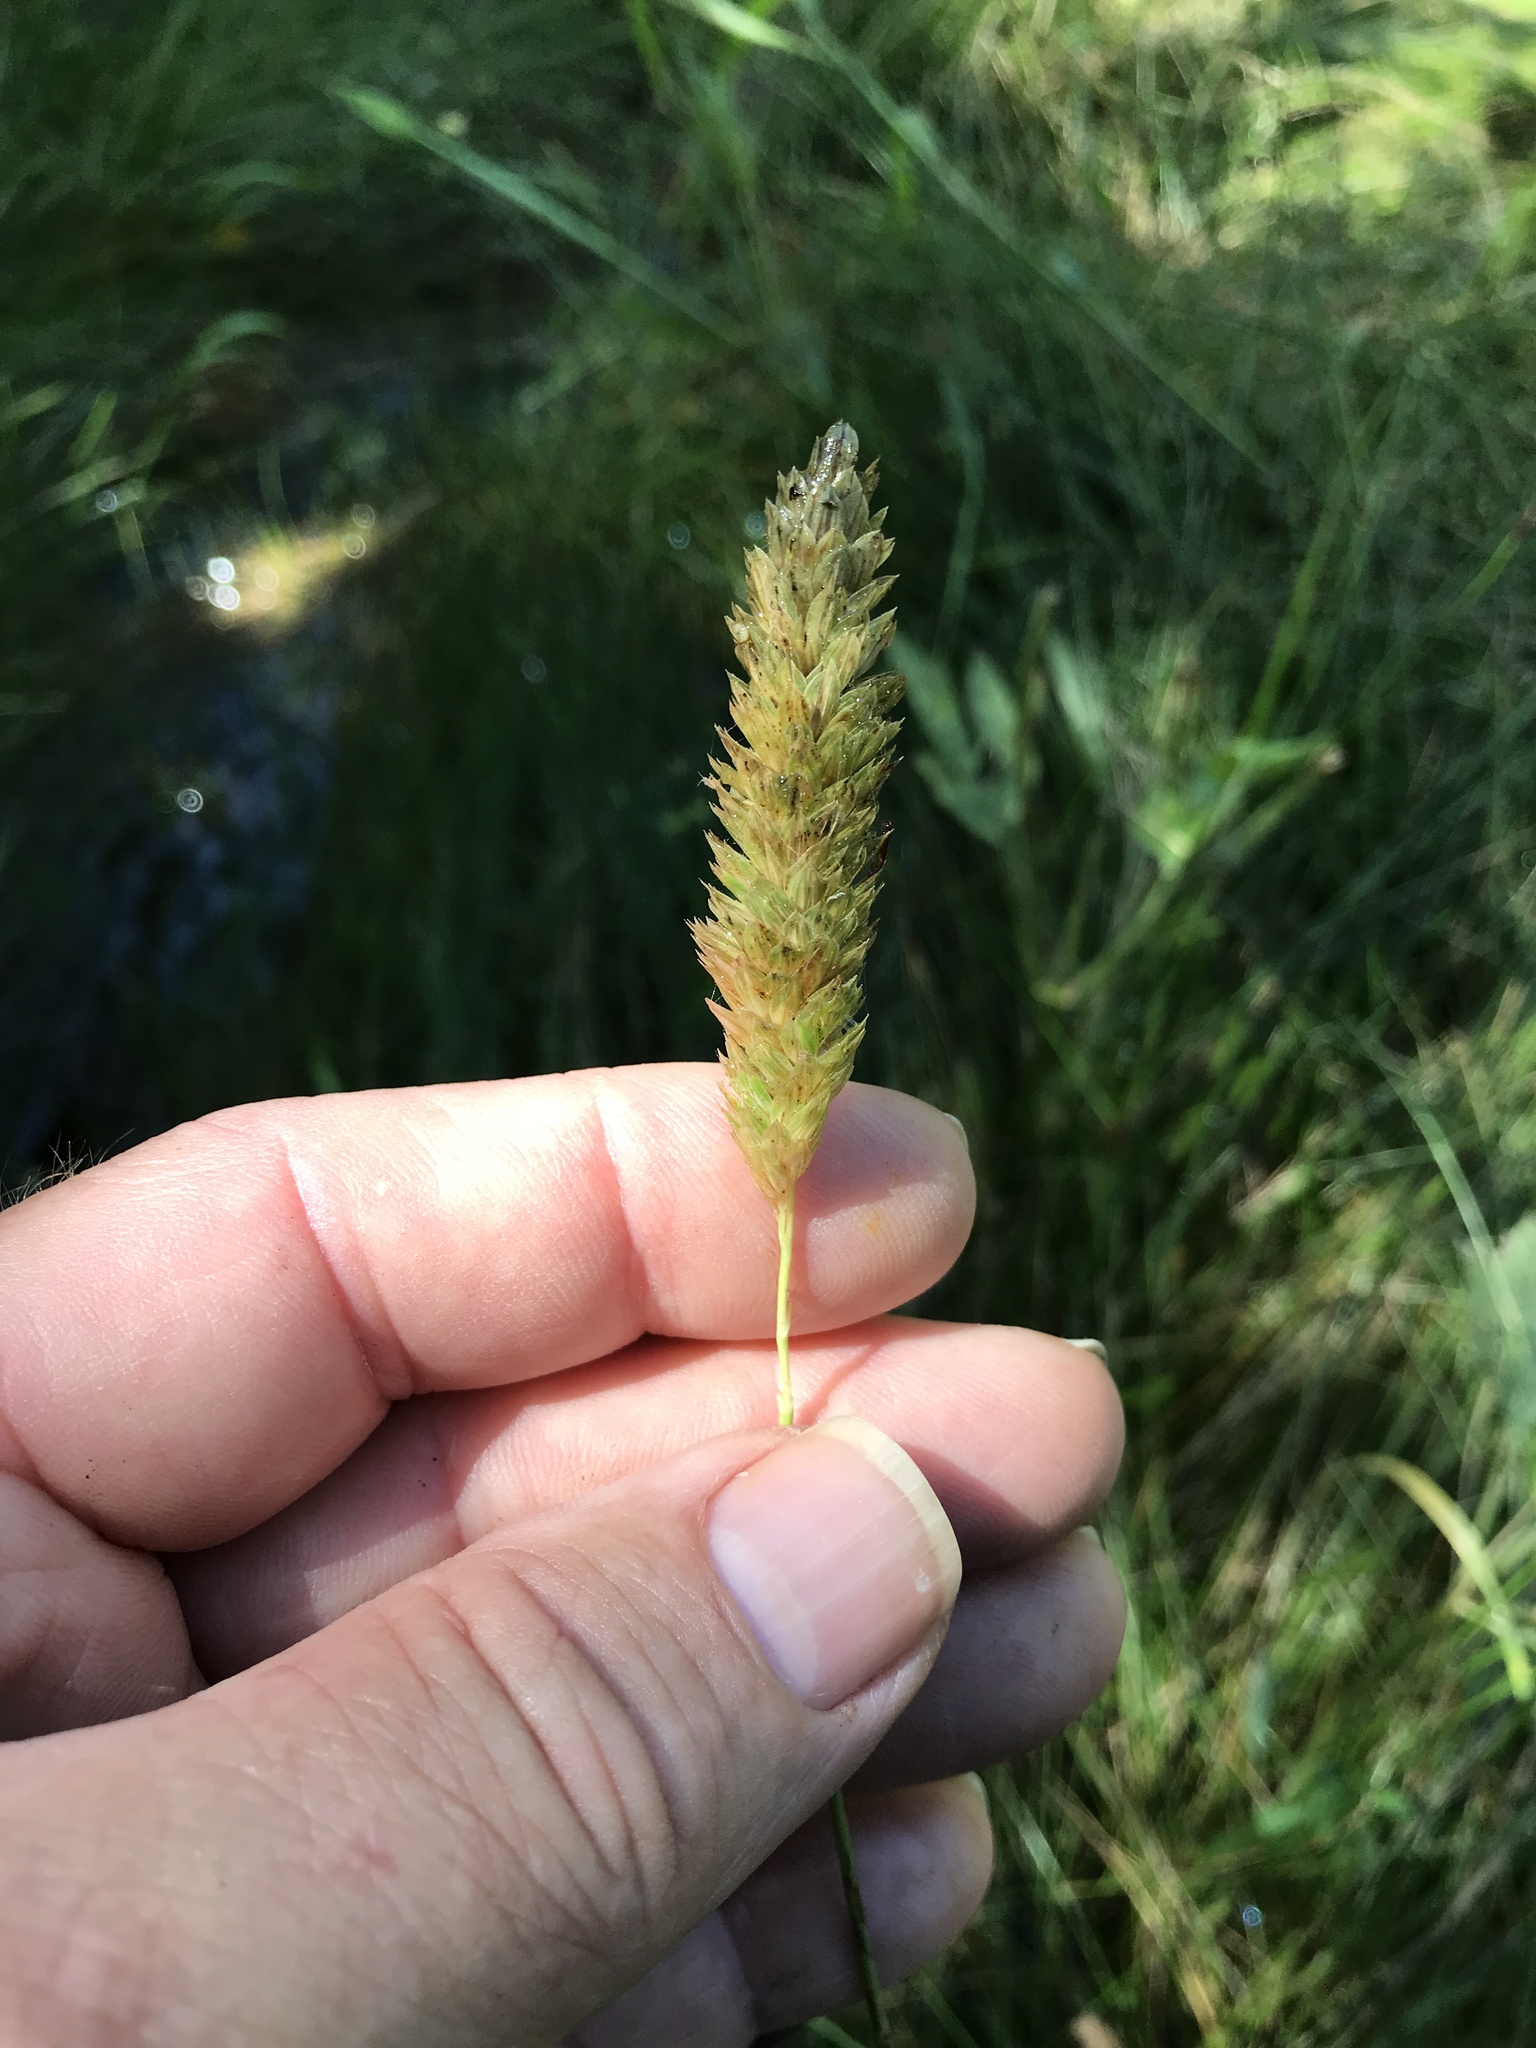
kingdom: Plantae
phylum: Tracheophyta
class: Liliopsida
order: Poales
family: Poaceae
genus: Phalaris
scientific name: Phalaris caroliniana
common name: May grass
